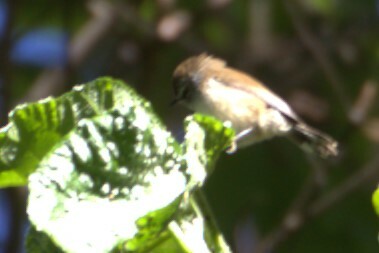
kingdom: Animalia
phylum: Chordata
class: Aves
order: Passeriformes
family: Acanthizidae
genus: Gerygone
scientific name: Gerygone mouki
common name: Brown gerygone
